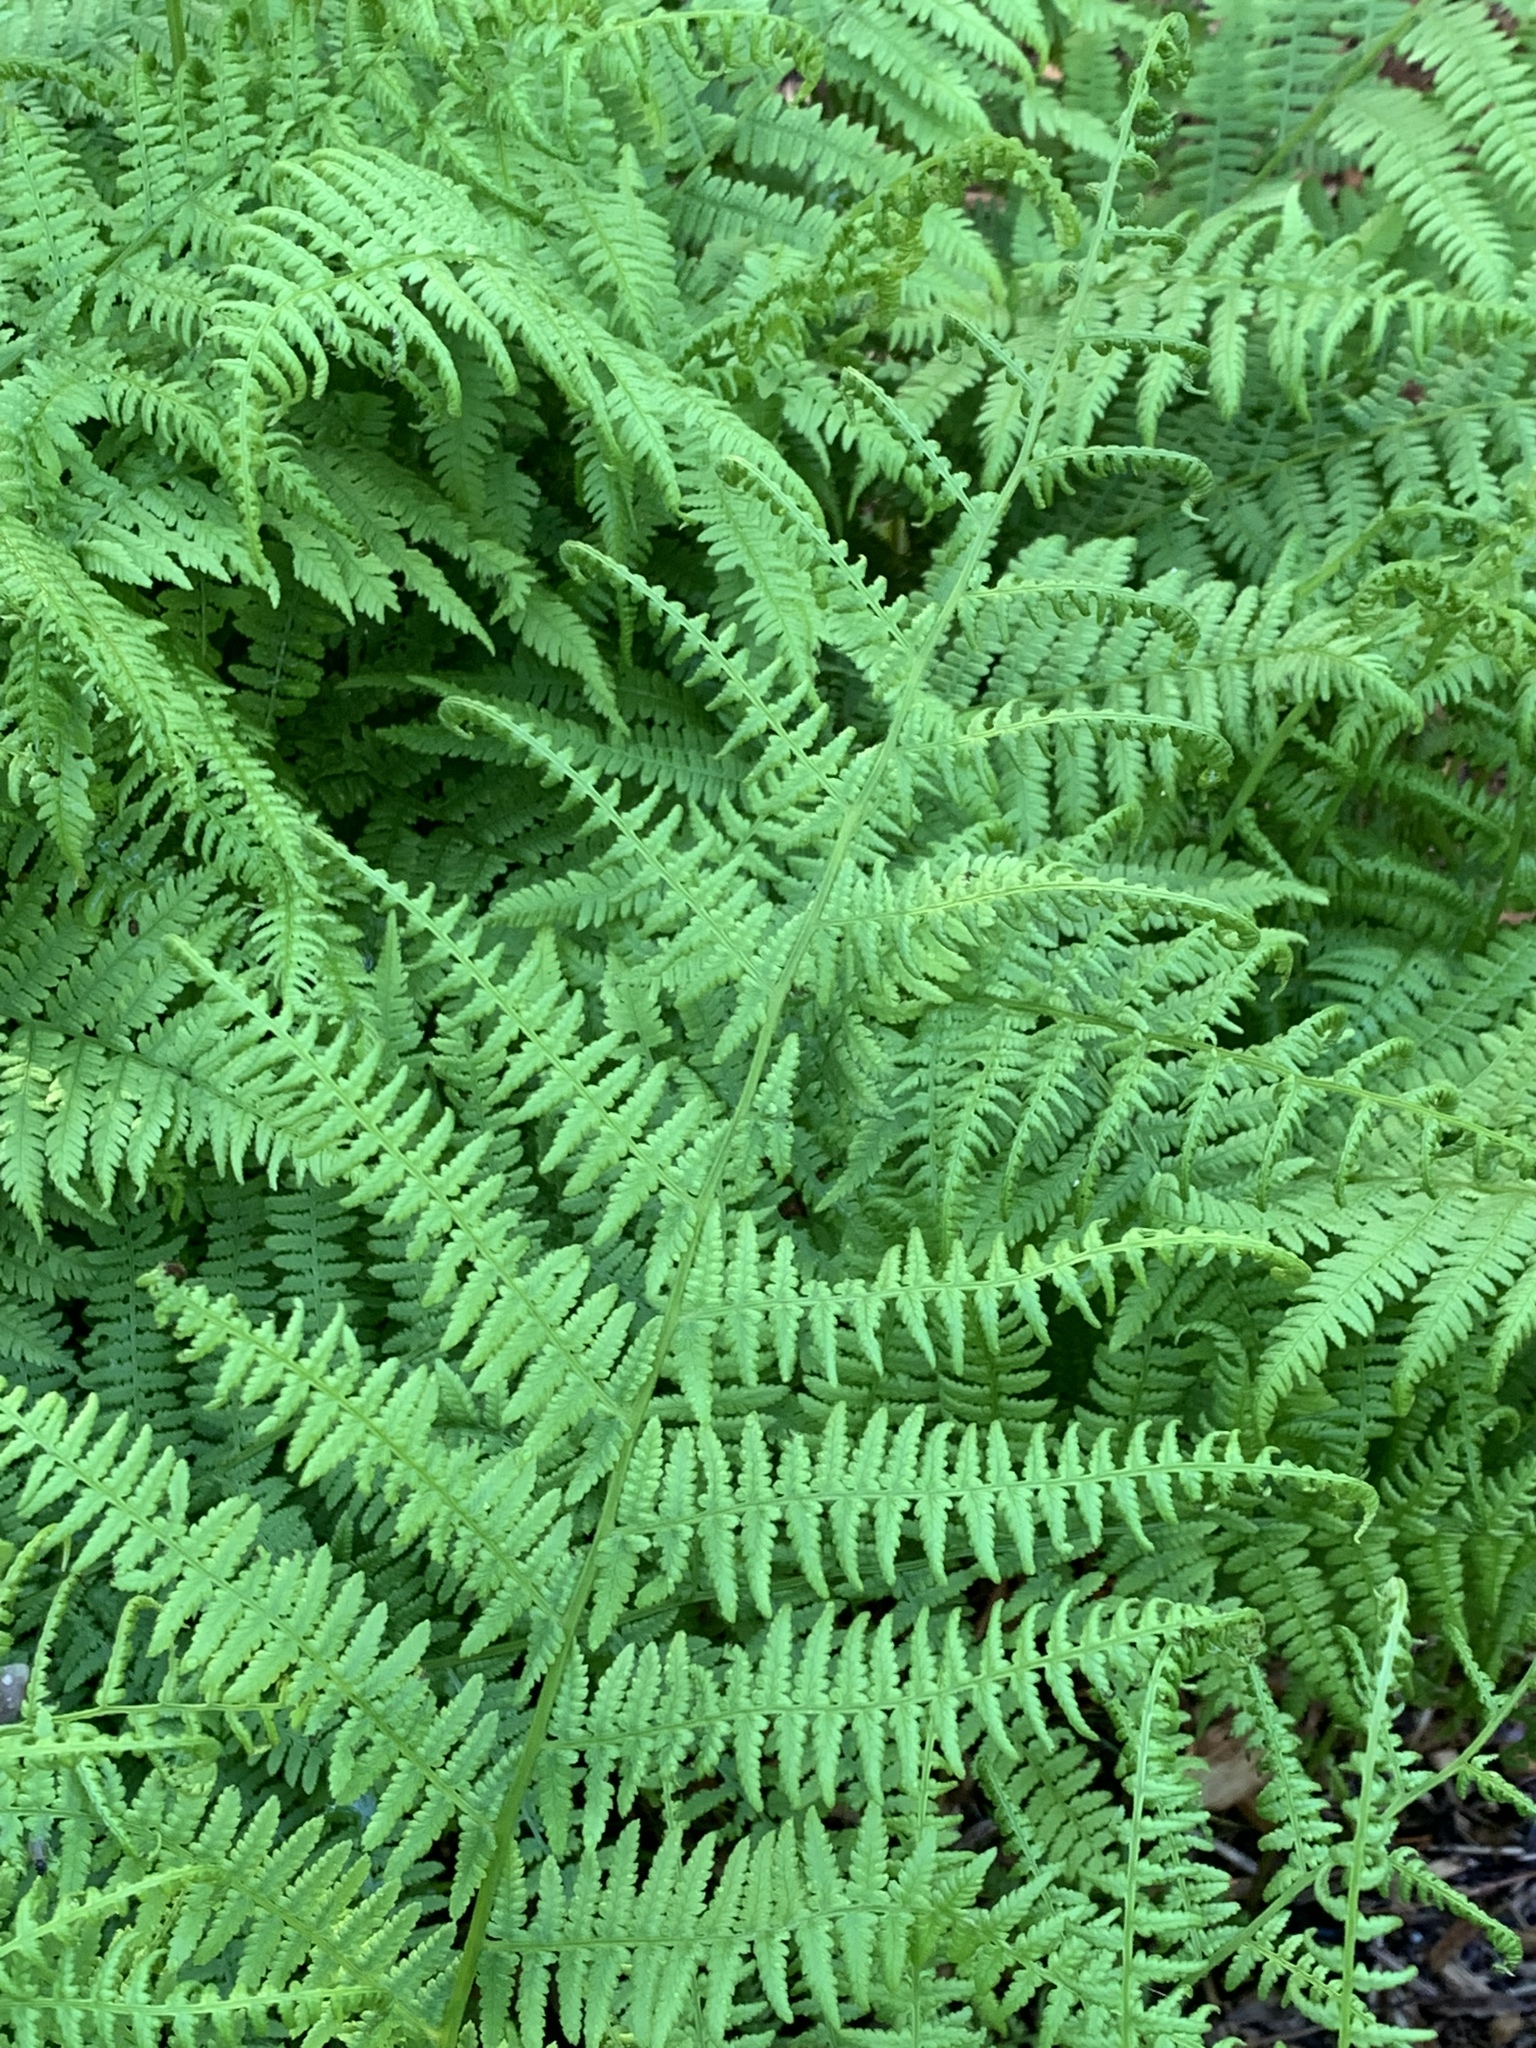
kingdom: Plantae
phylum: Tracheophyta
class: Polypodiopsida
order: Polypodiales
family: Athyriaceae
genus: Athyrium
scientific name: Athyrium angustum
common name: Northern lady fern
